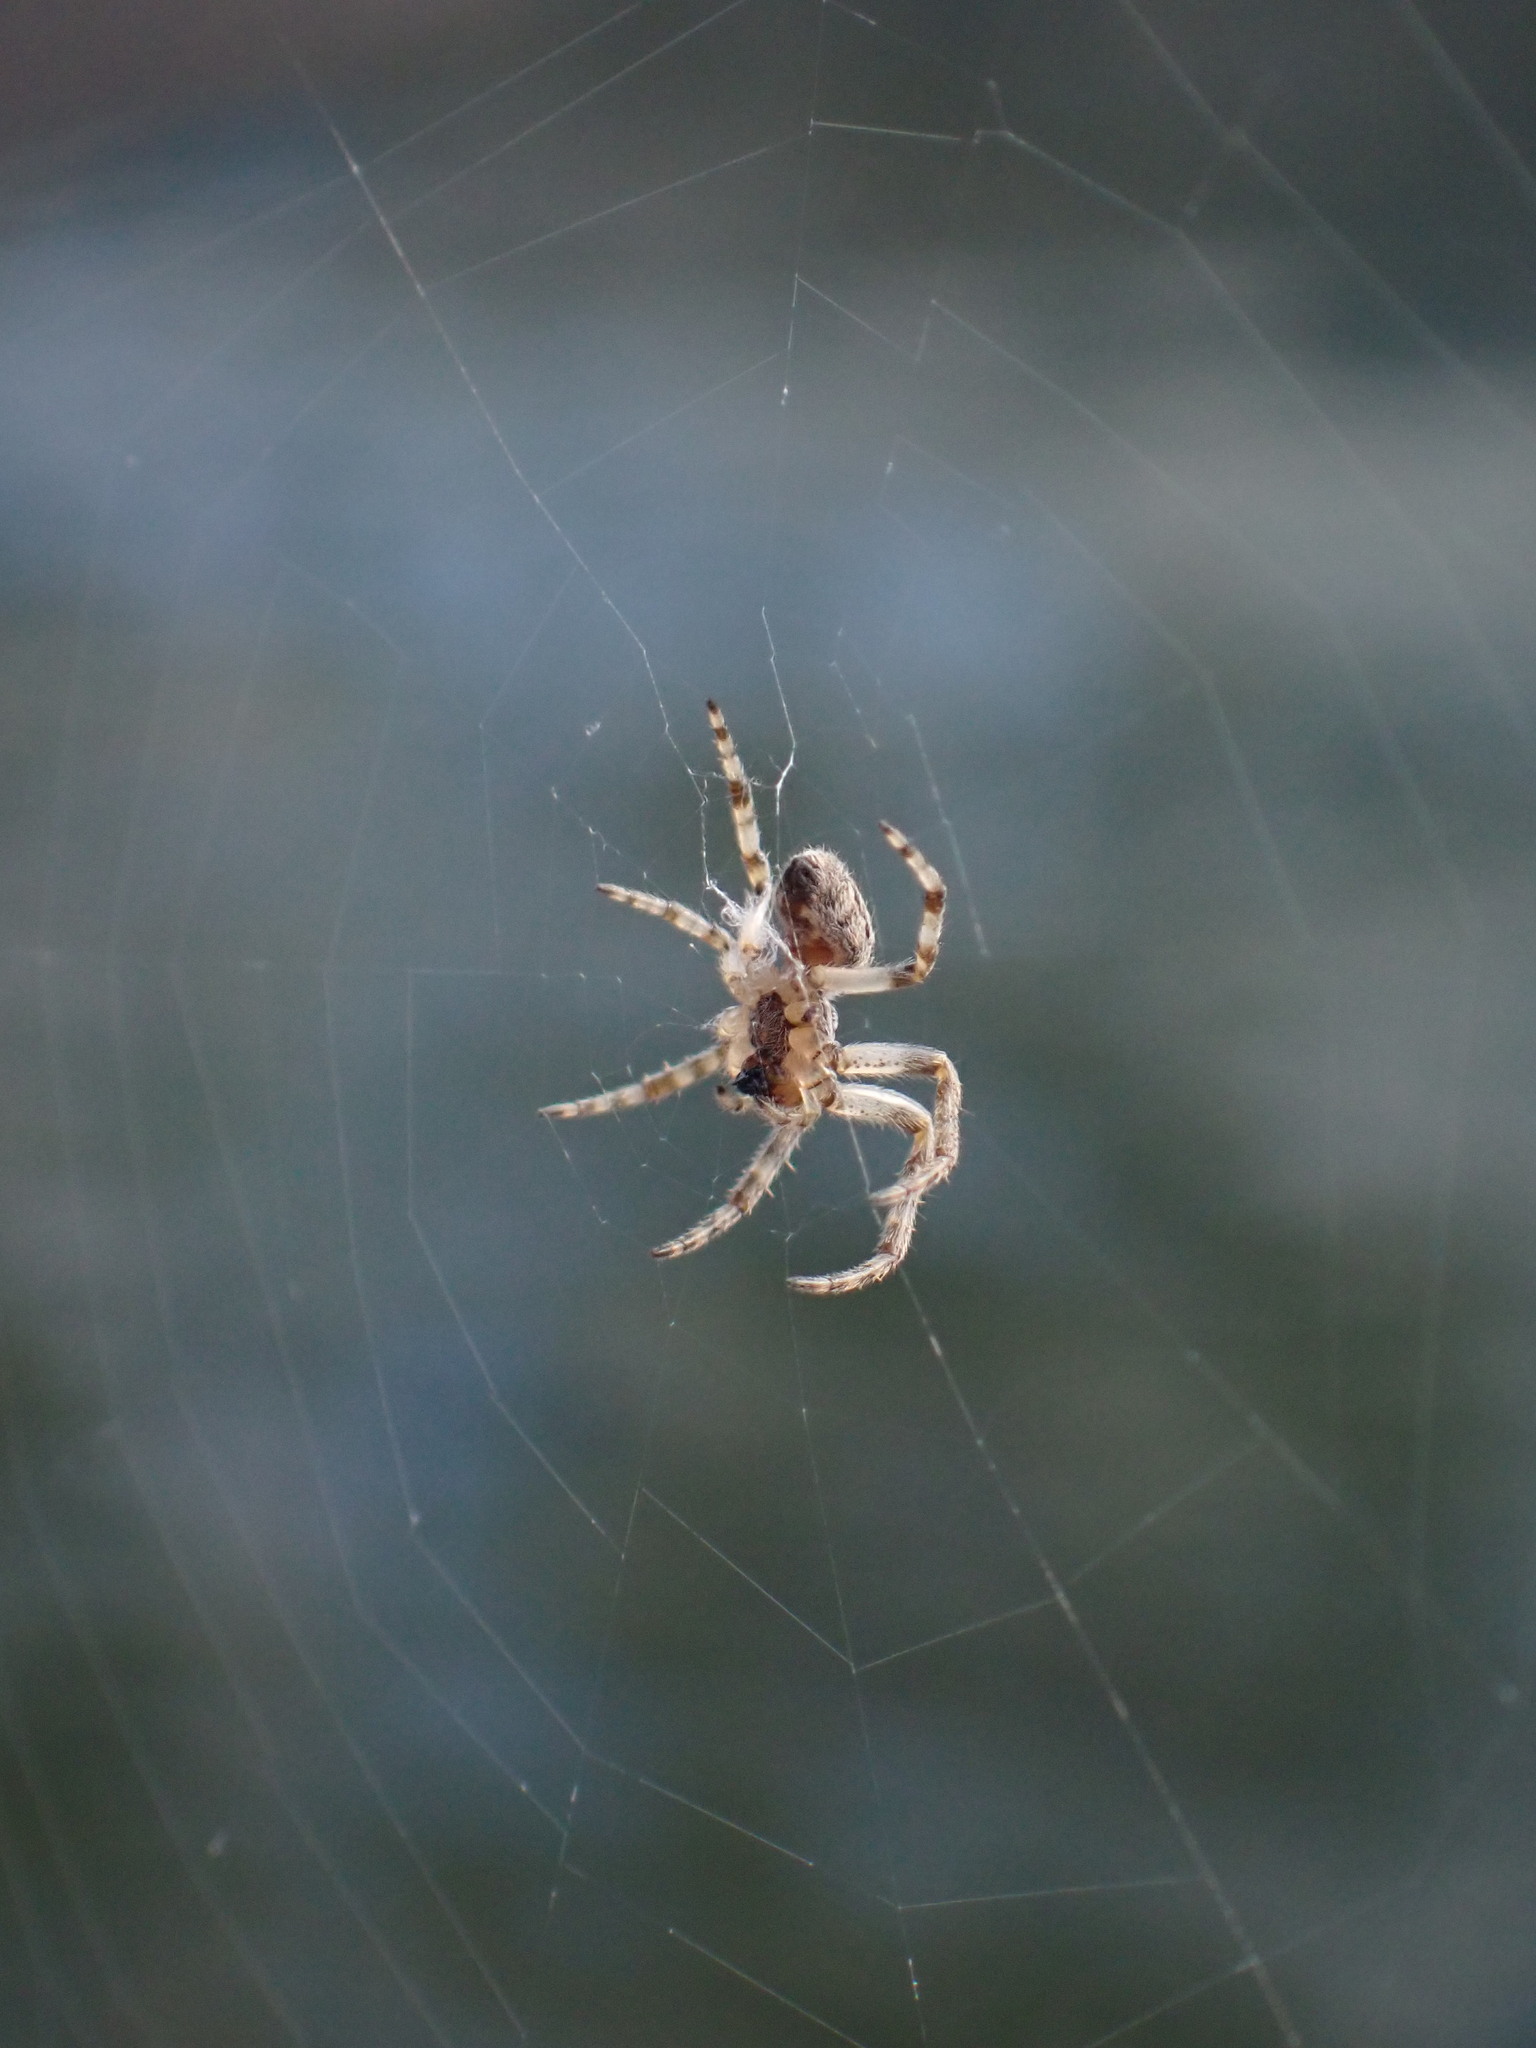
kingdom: Animalia
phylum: Arthropoda
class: Arachnida
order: Araneae
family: Araneidae
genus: Larinioides
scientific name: Larinioides sclopetarius
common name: Bridge orbweaver
